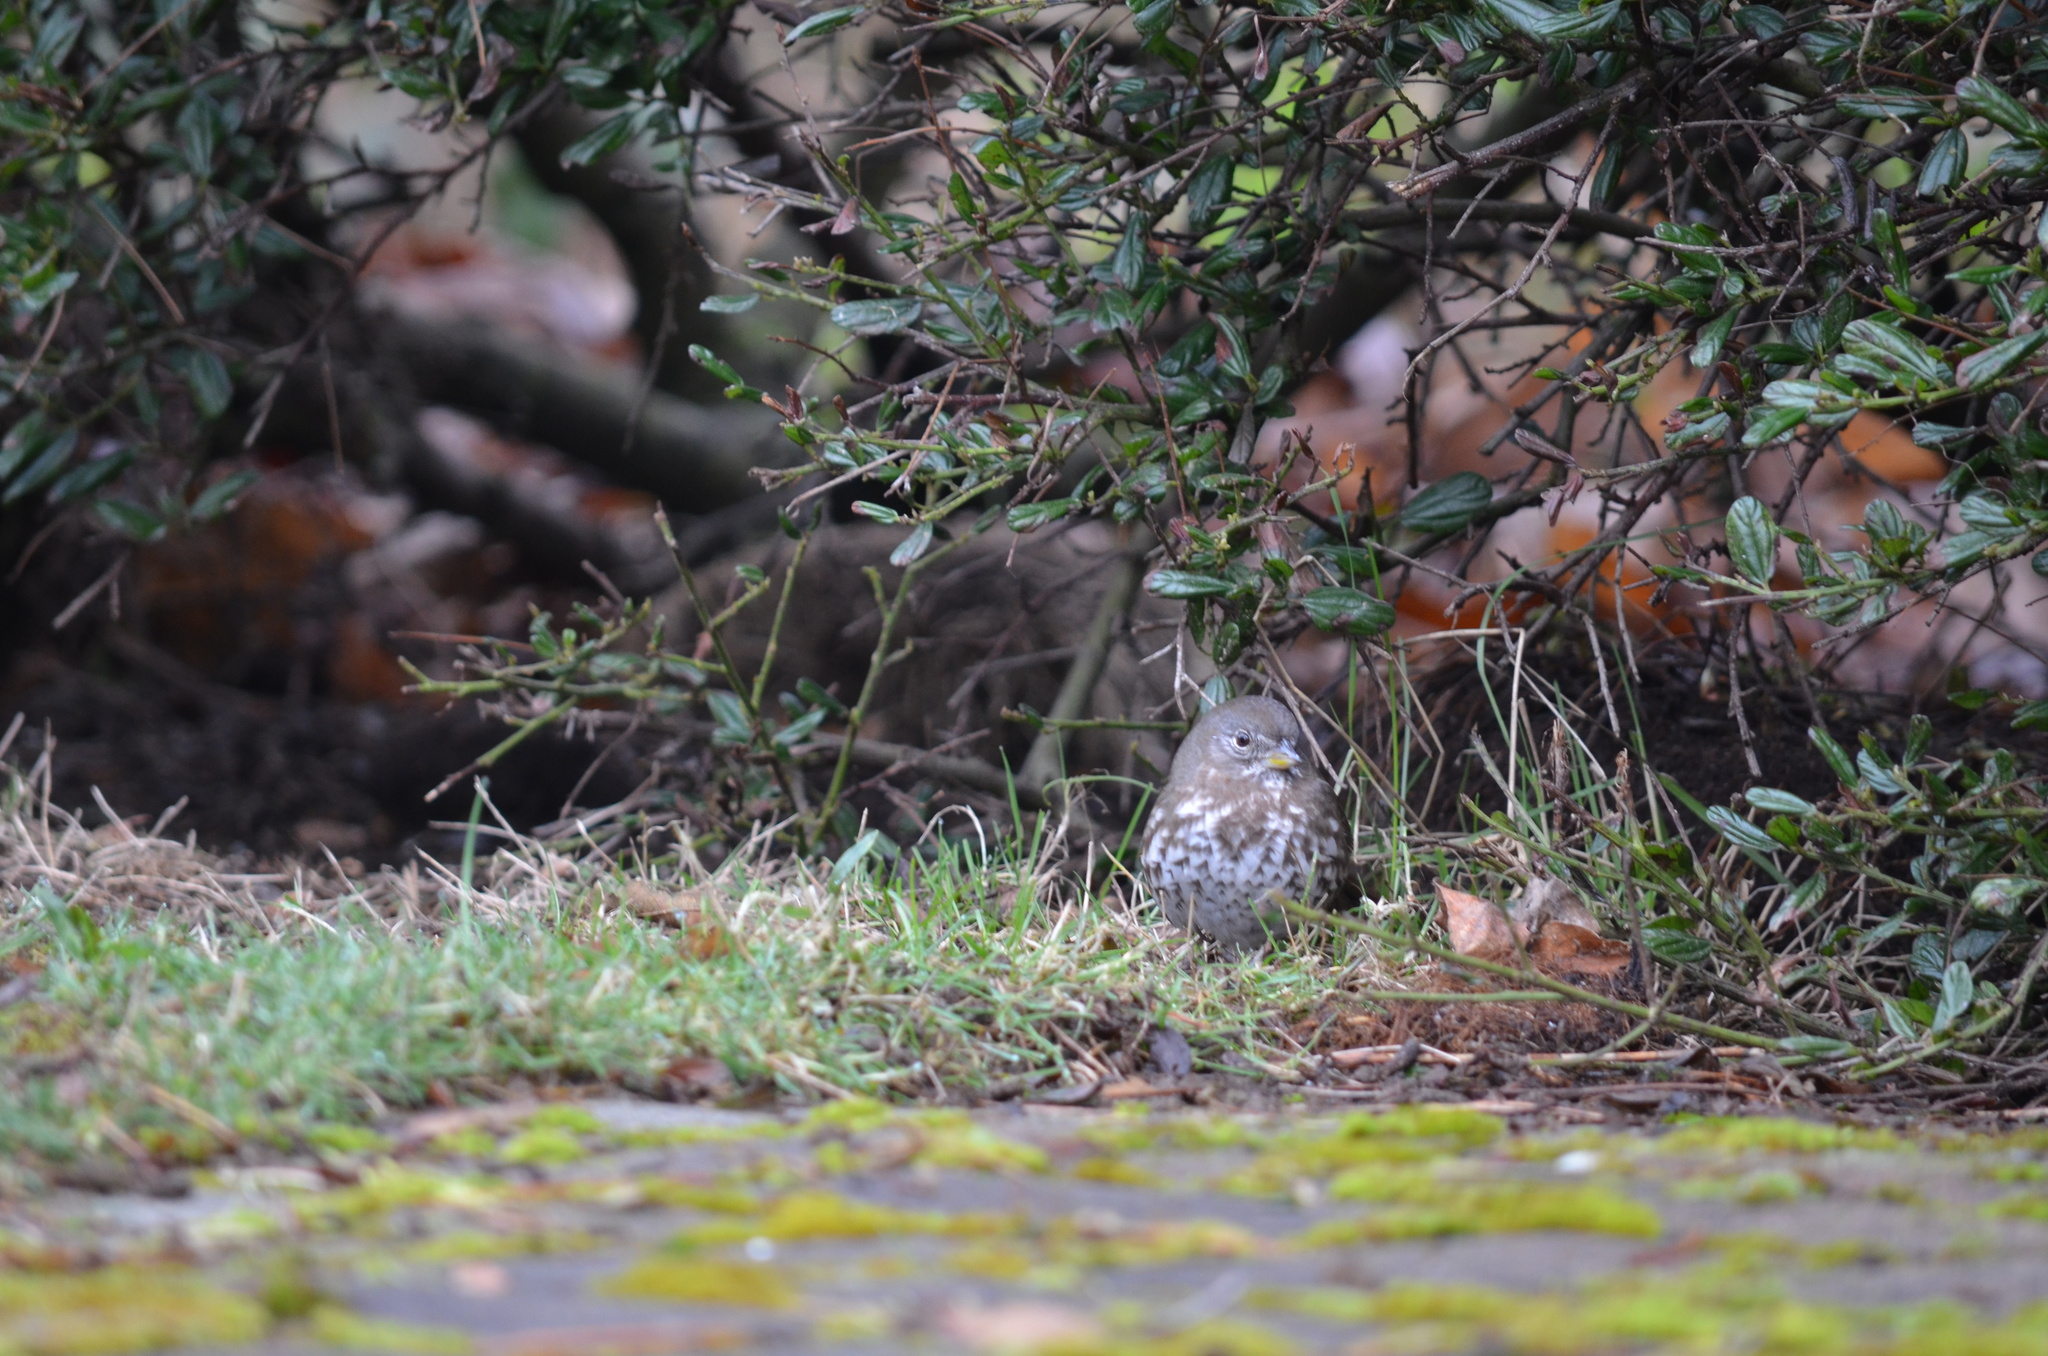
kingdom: Animalia
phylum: Chordata
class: Aves
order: Passeriformes
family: Passerellidae
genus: Passerella
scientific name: Passerella iliaca
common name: Fox sparrow
